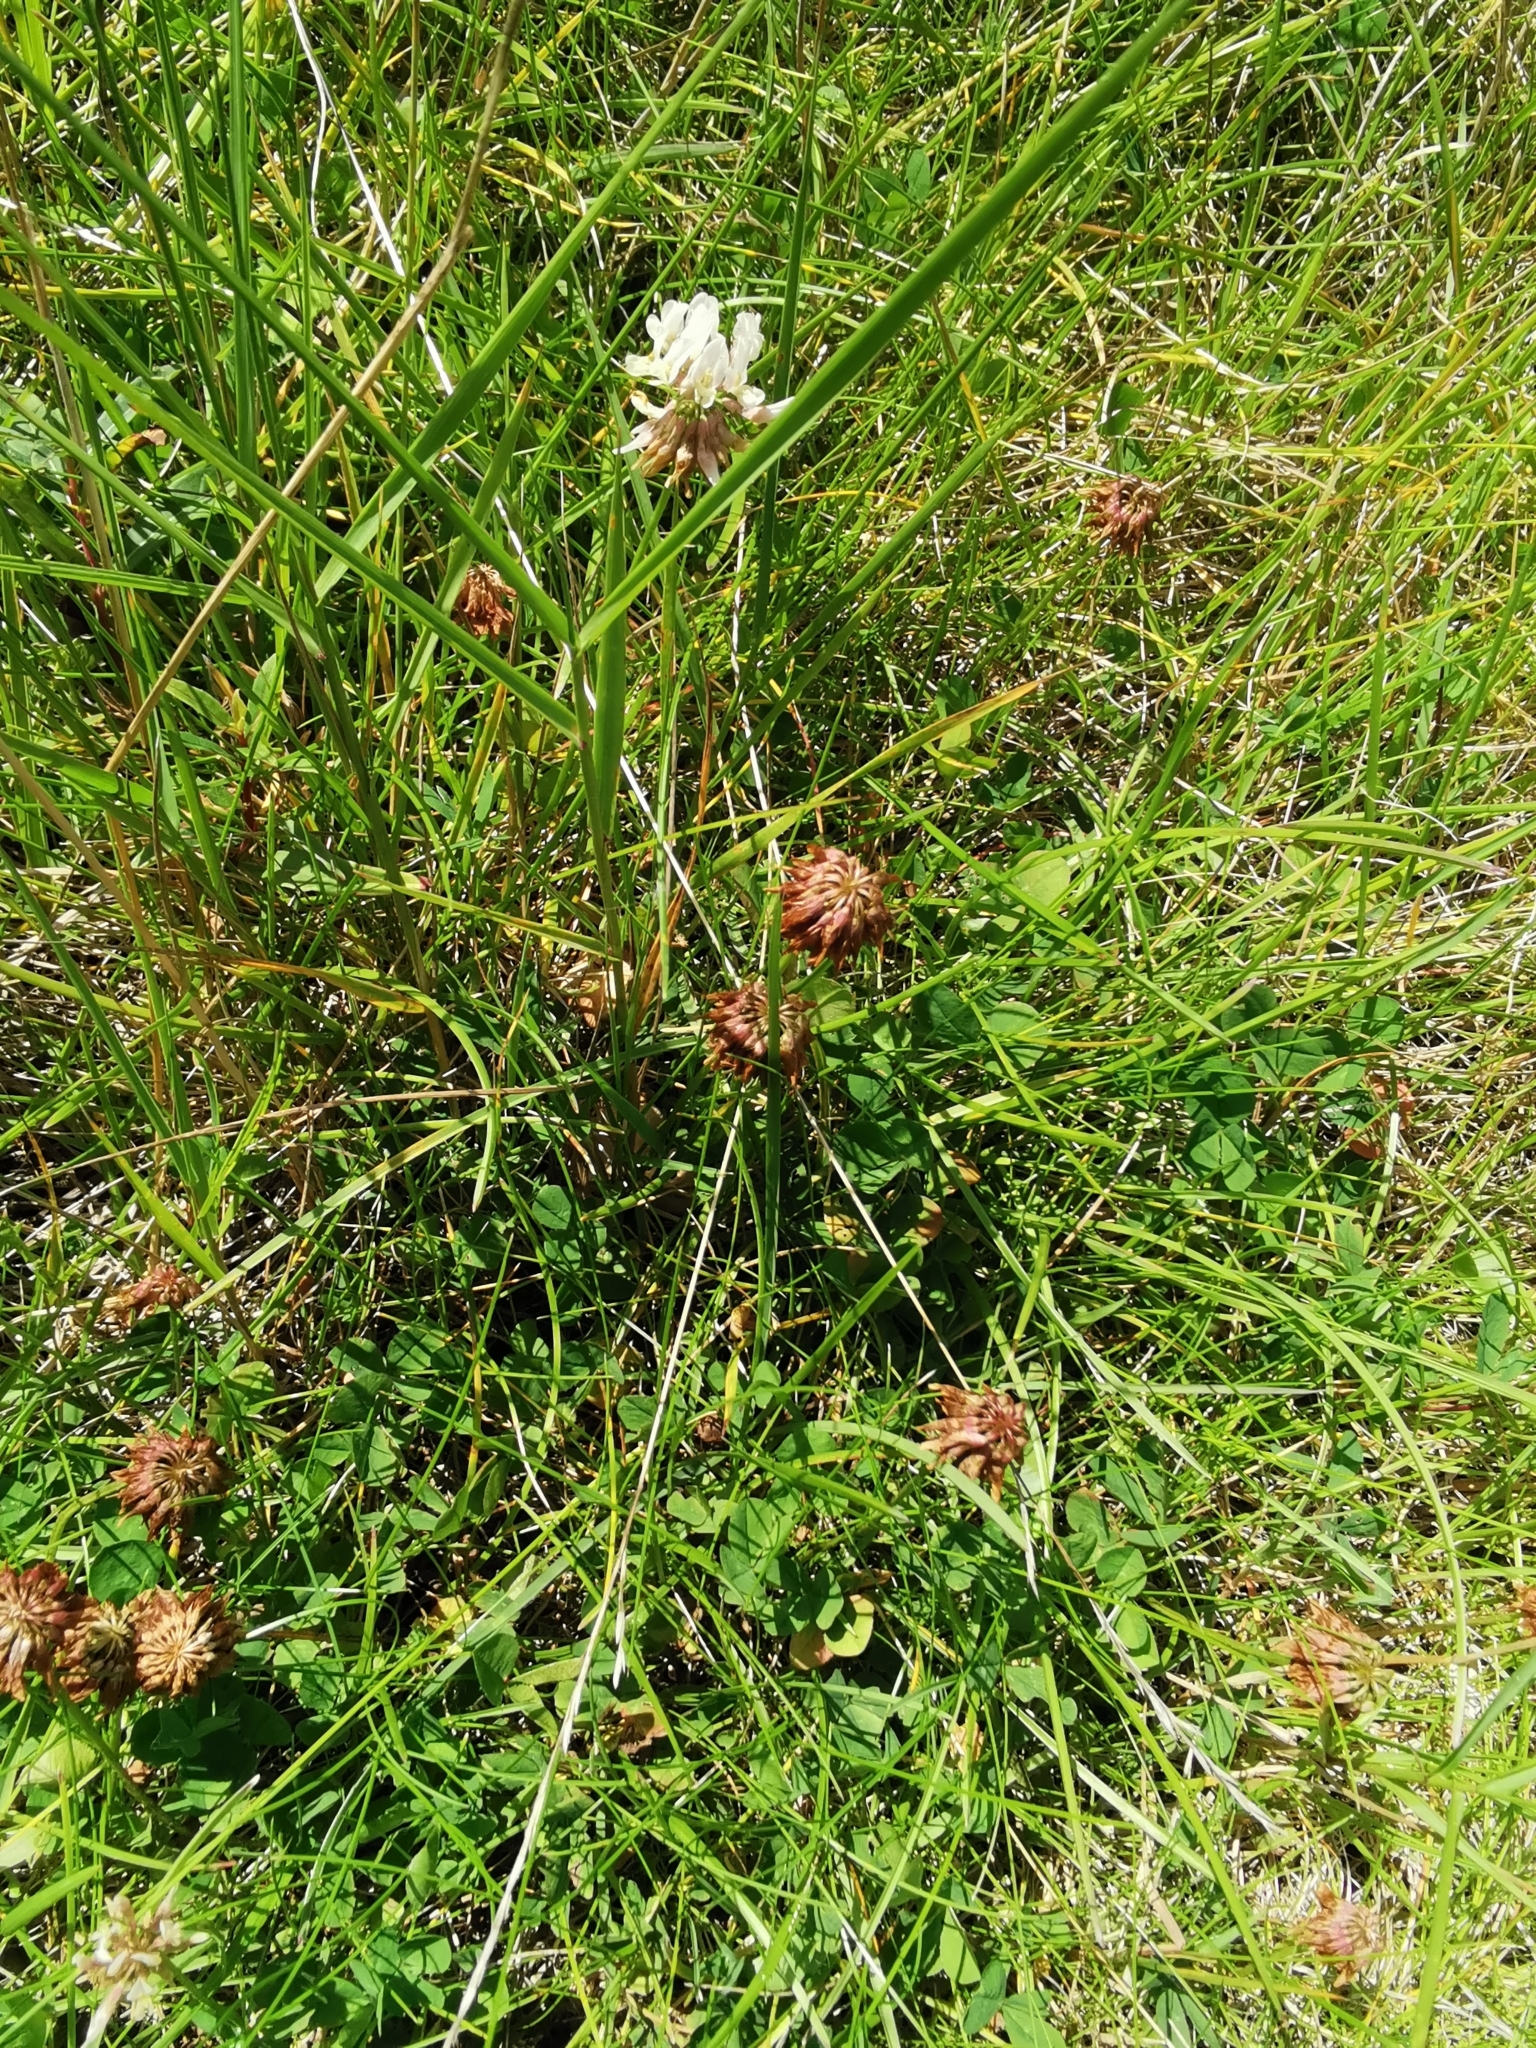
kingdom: Plantae
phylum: Tracheophyta
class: Magnoliopsida
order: Fabales
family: Fabaceae
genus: Trifolium
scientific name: Trifolium repens
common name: White clover
